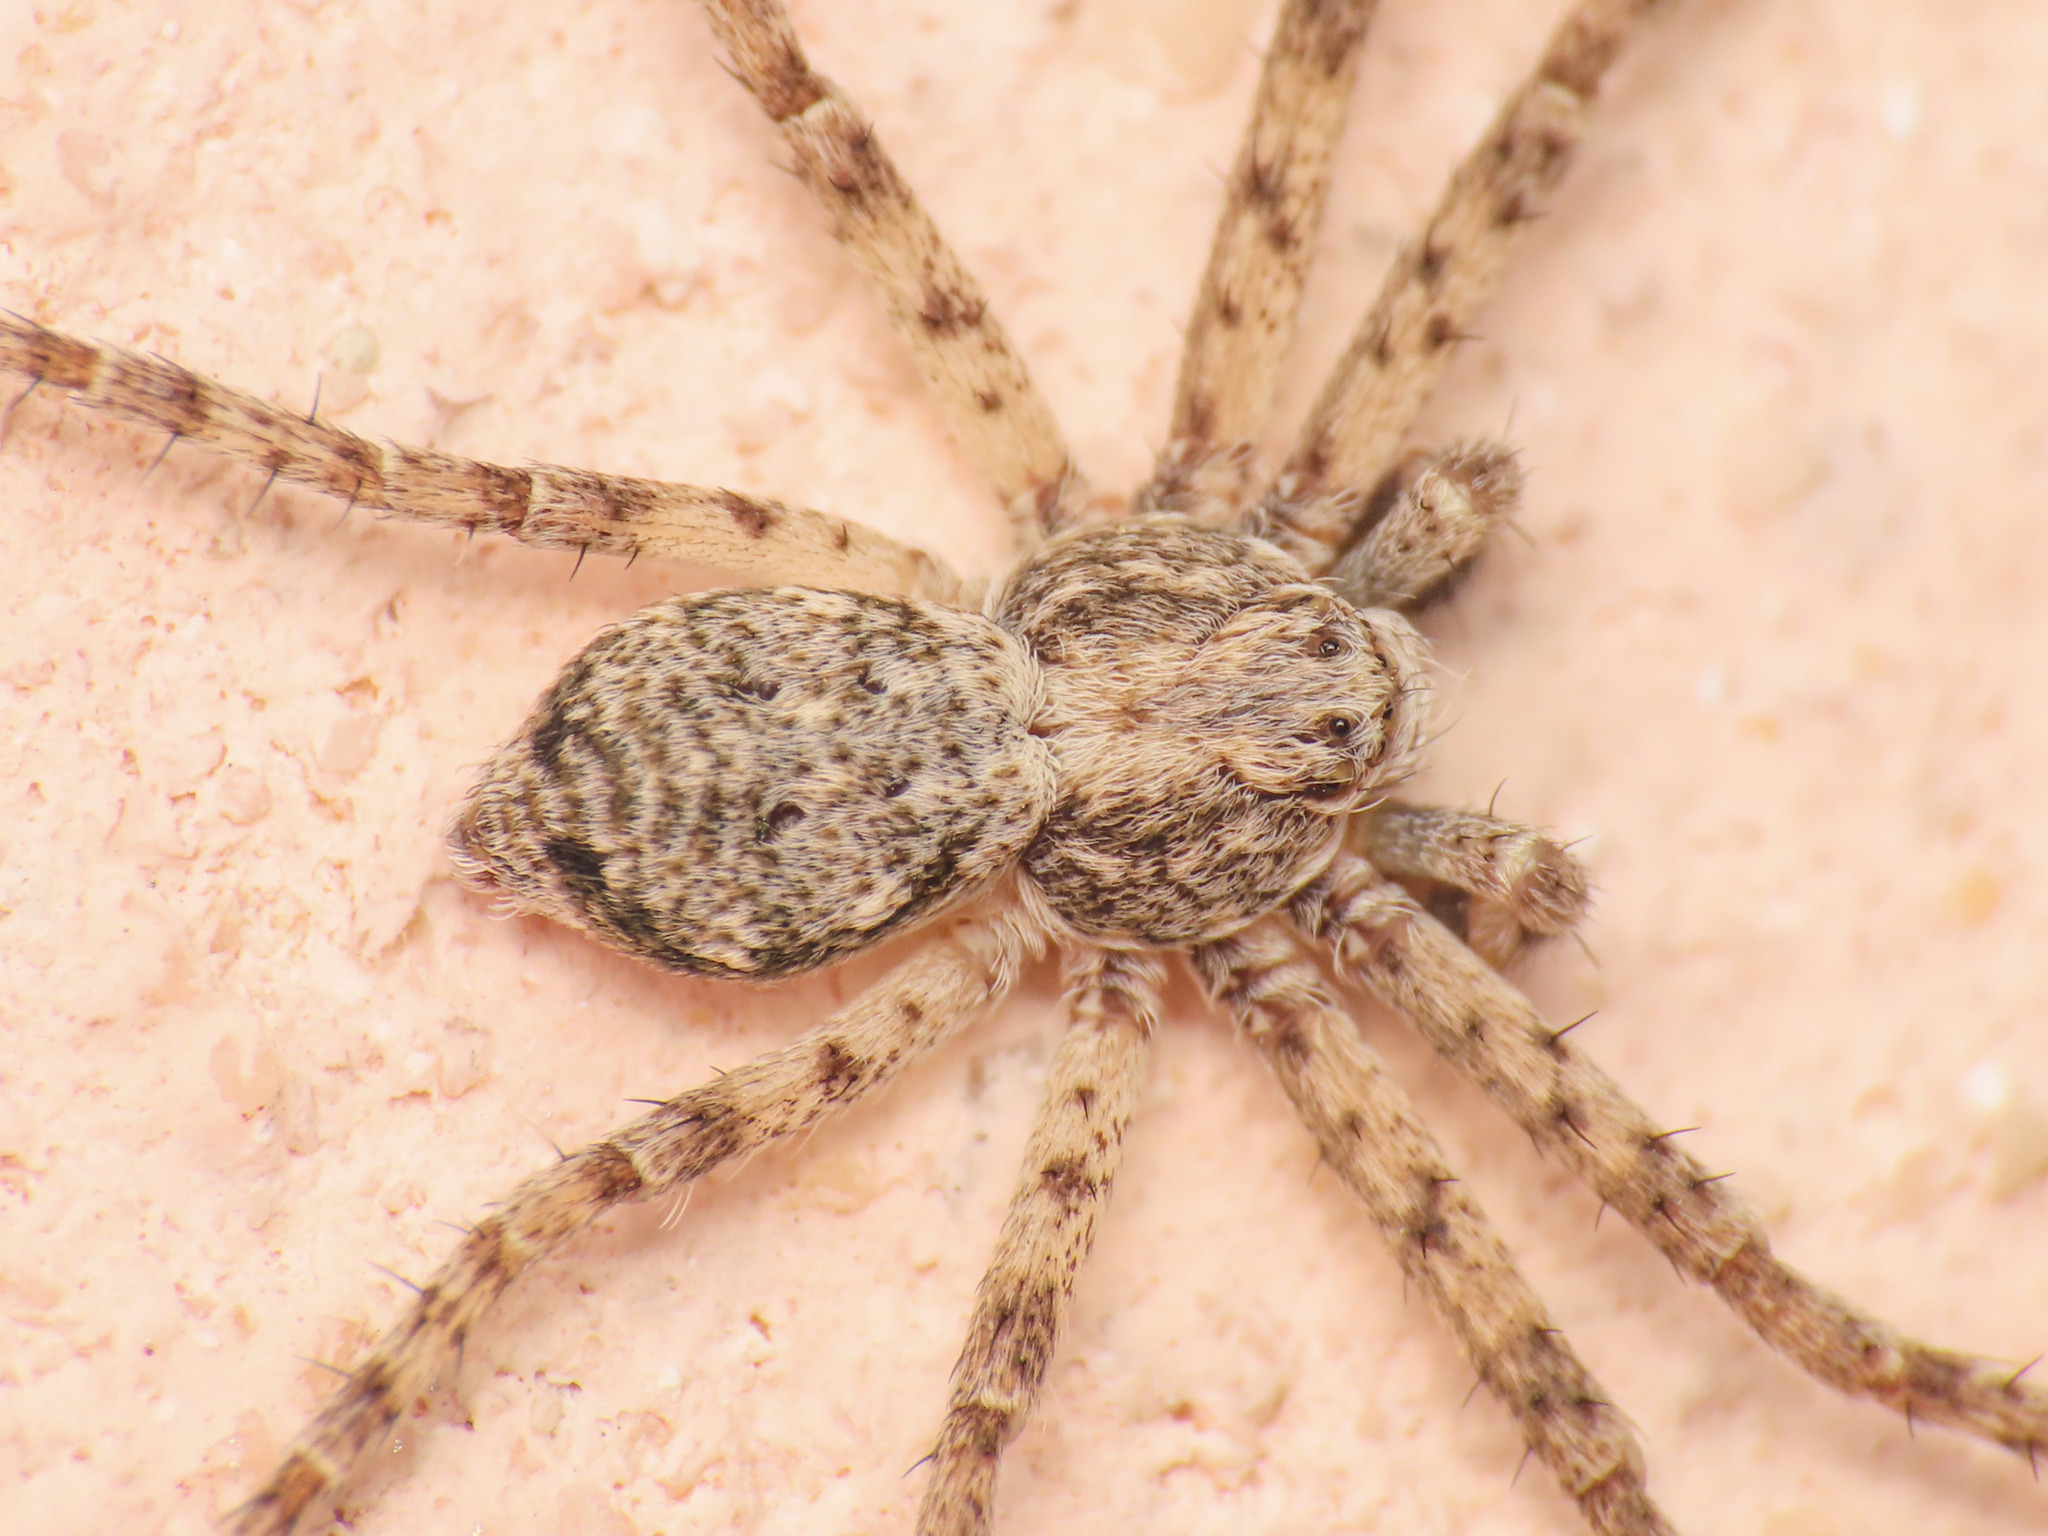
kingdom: Animalia
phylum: Arthropoda
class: Arachnida
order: Araneae
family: Philodromidae
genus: Philodromus
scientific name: Philodromus buxi
